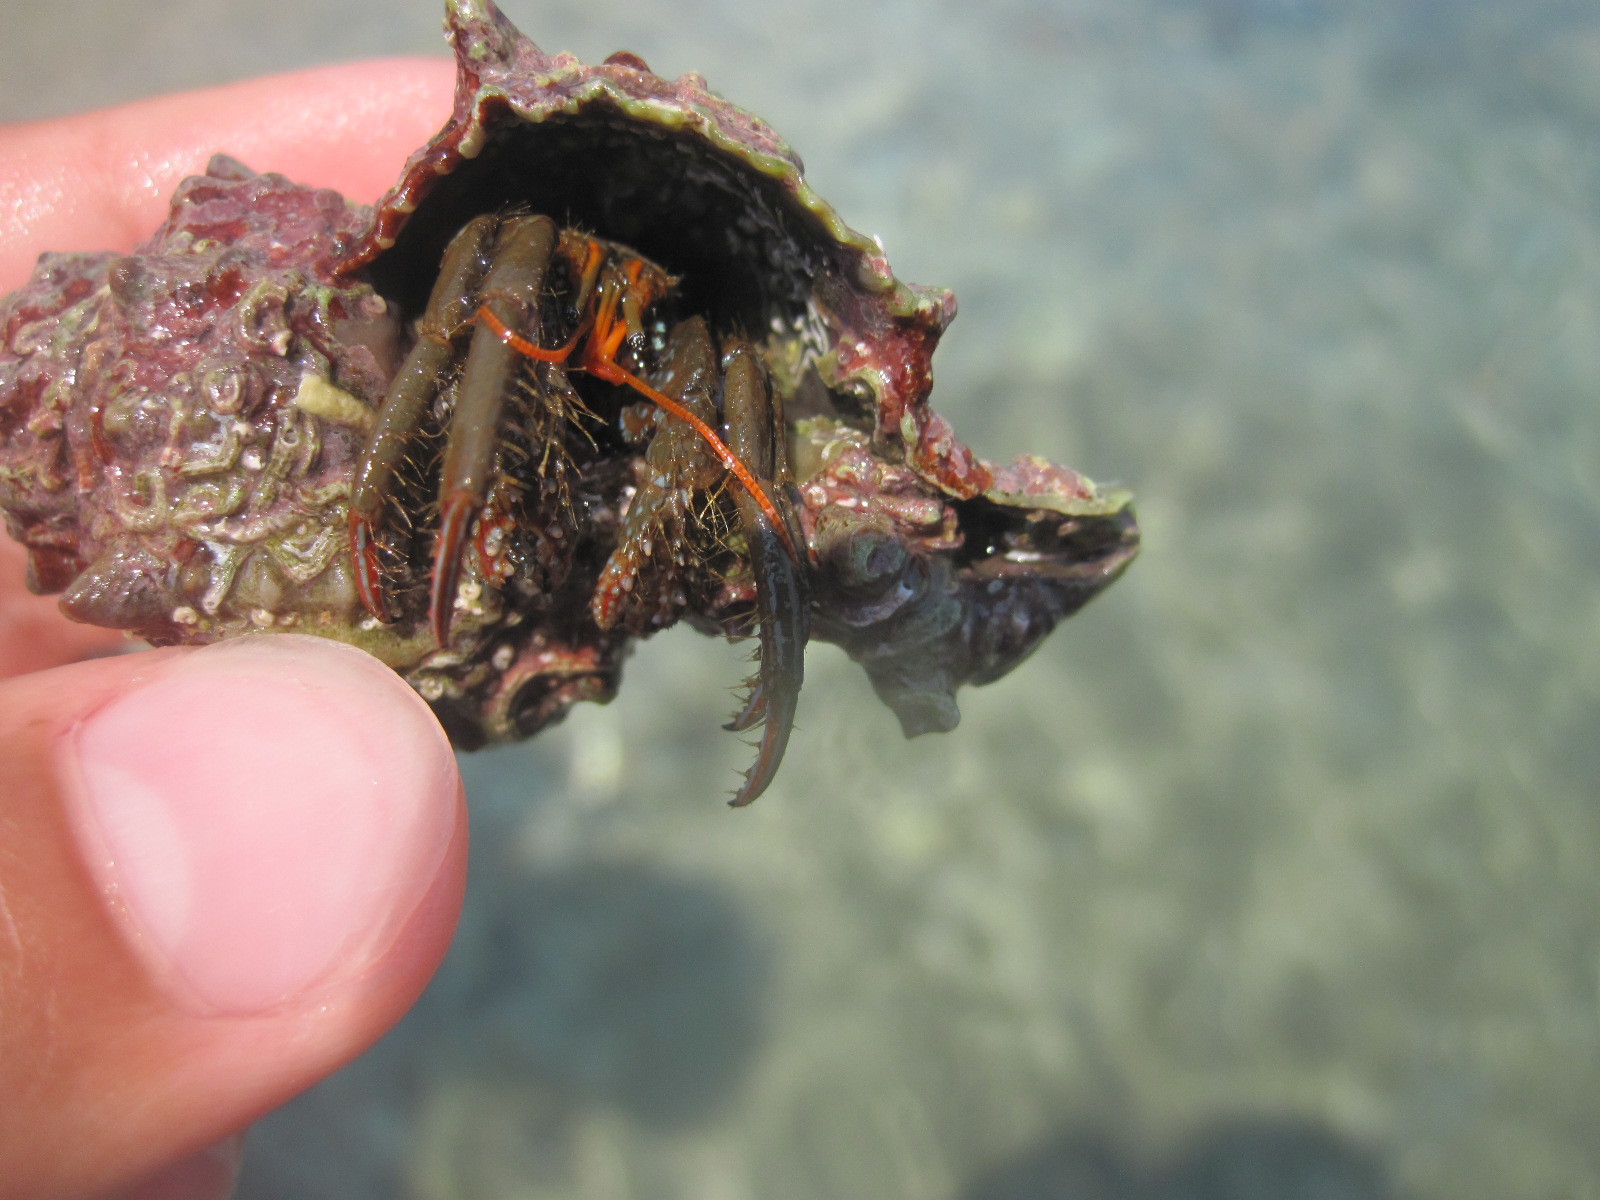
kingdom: Animalia
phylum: Arthropoda
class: Malacostraca
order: Decapoda
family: Diogenidae
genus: Clibanarius
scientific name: Clibanarius erythropus
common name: Hermit crab
